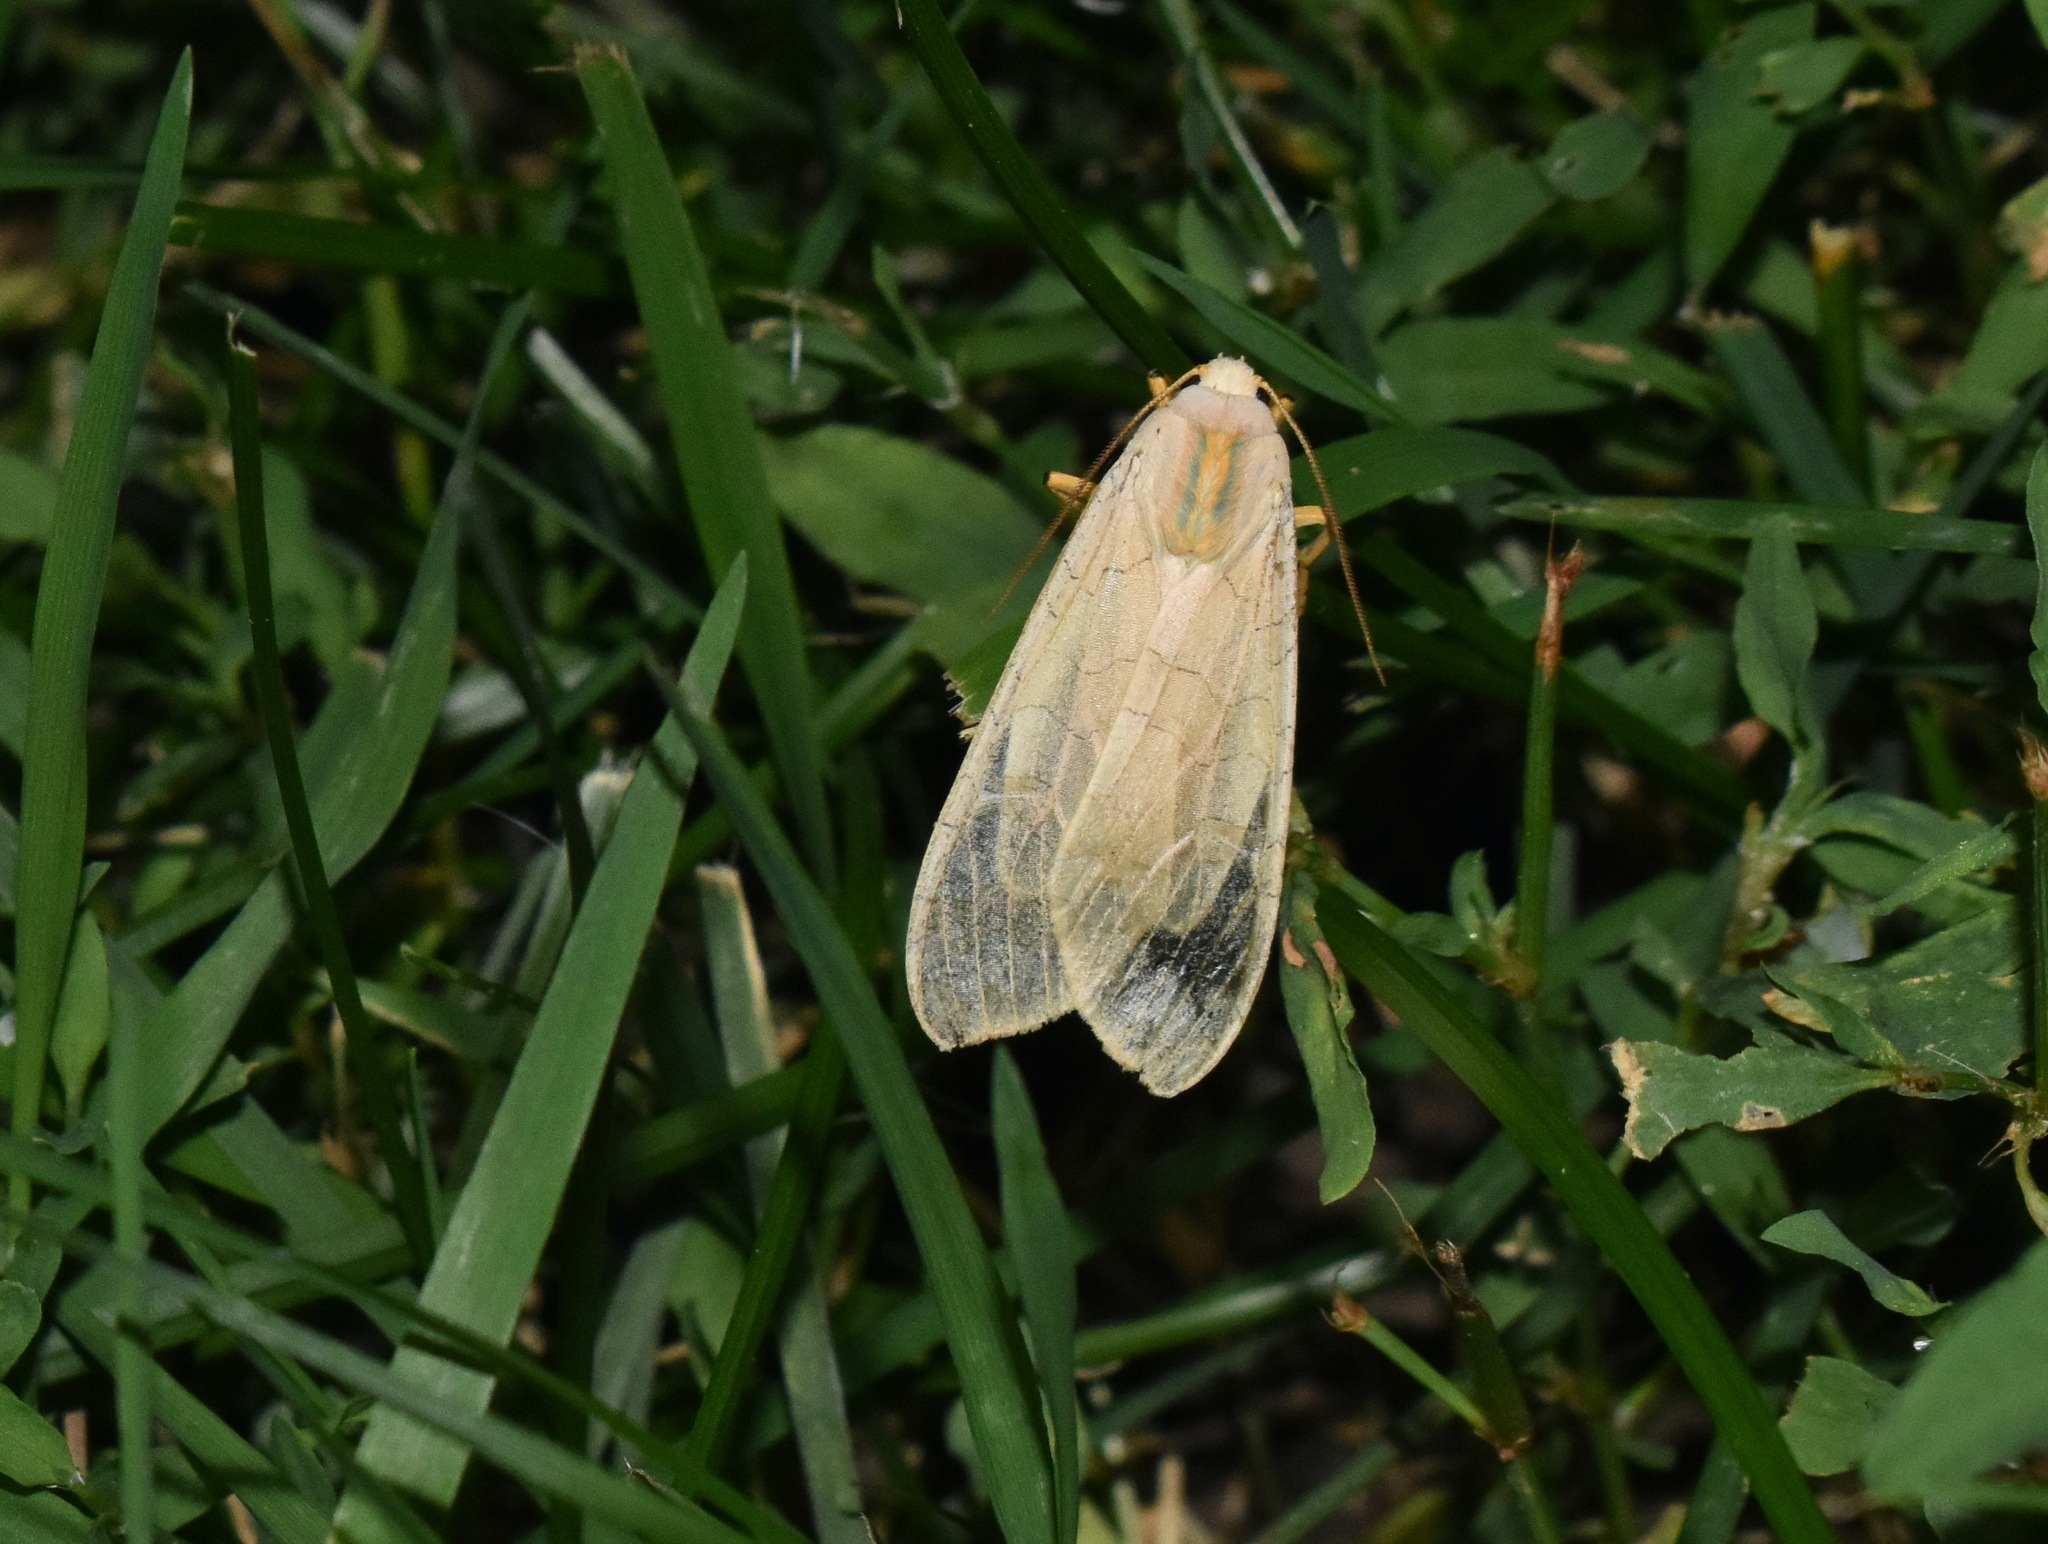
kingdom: Animalia
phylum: Arthropoda
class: Insecta
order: Lepidoptera
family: Erebidae
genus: Halysidota
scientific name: Halysidota
